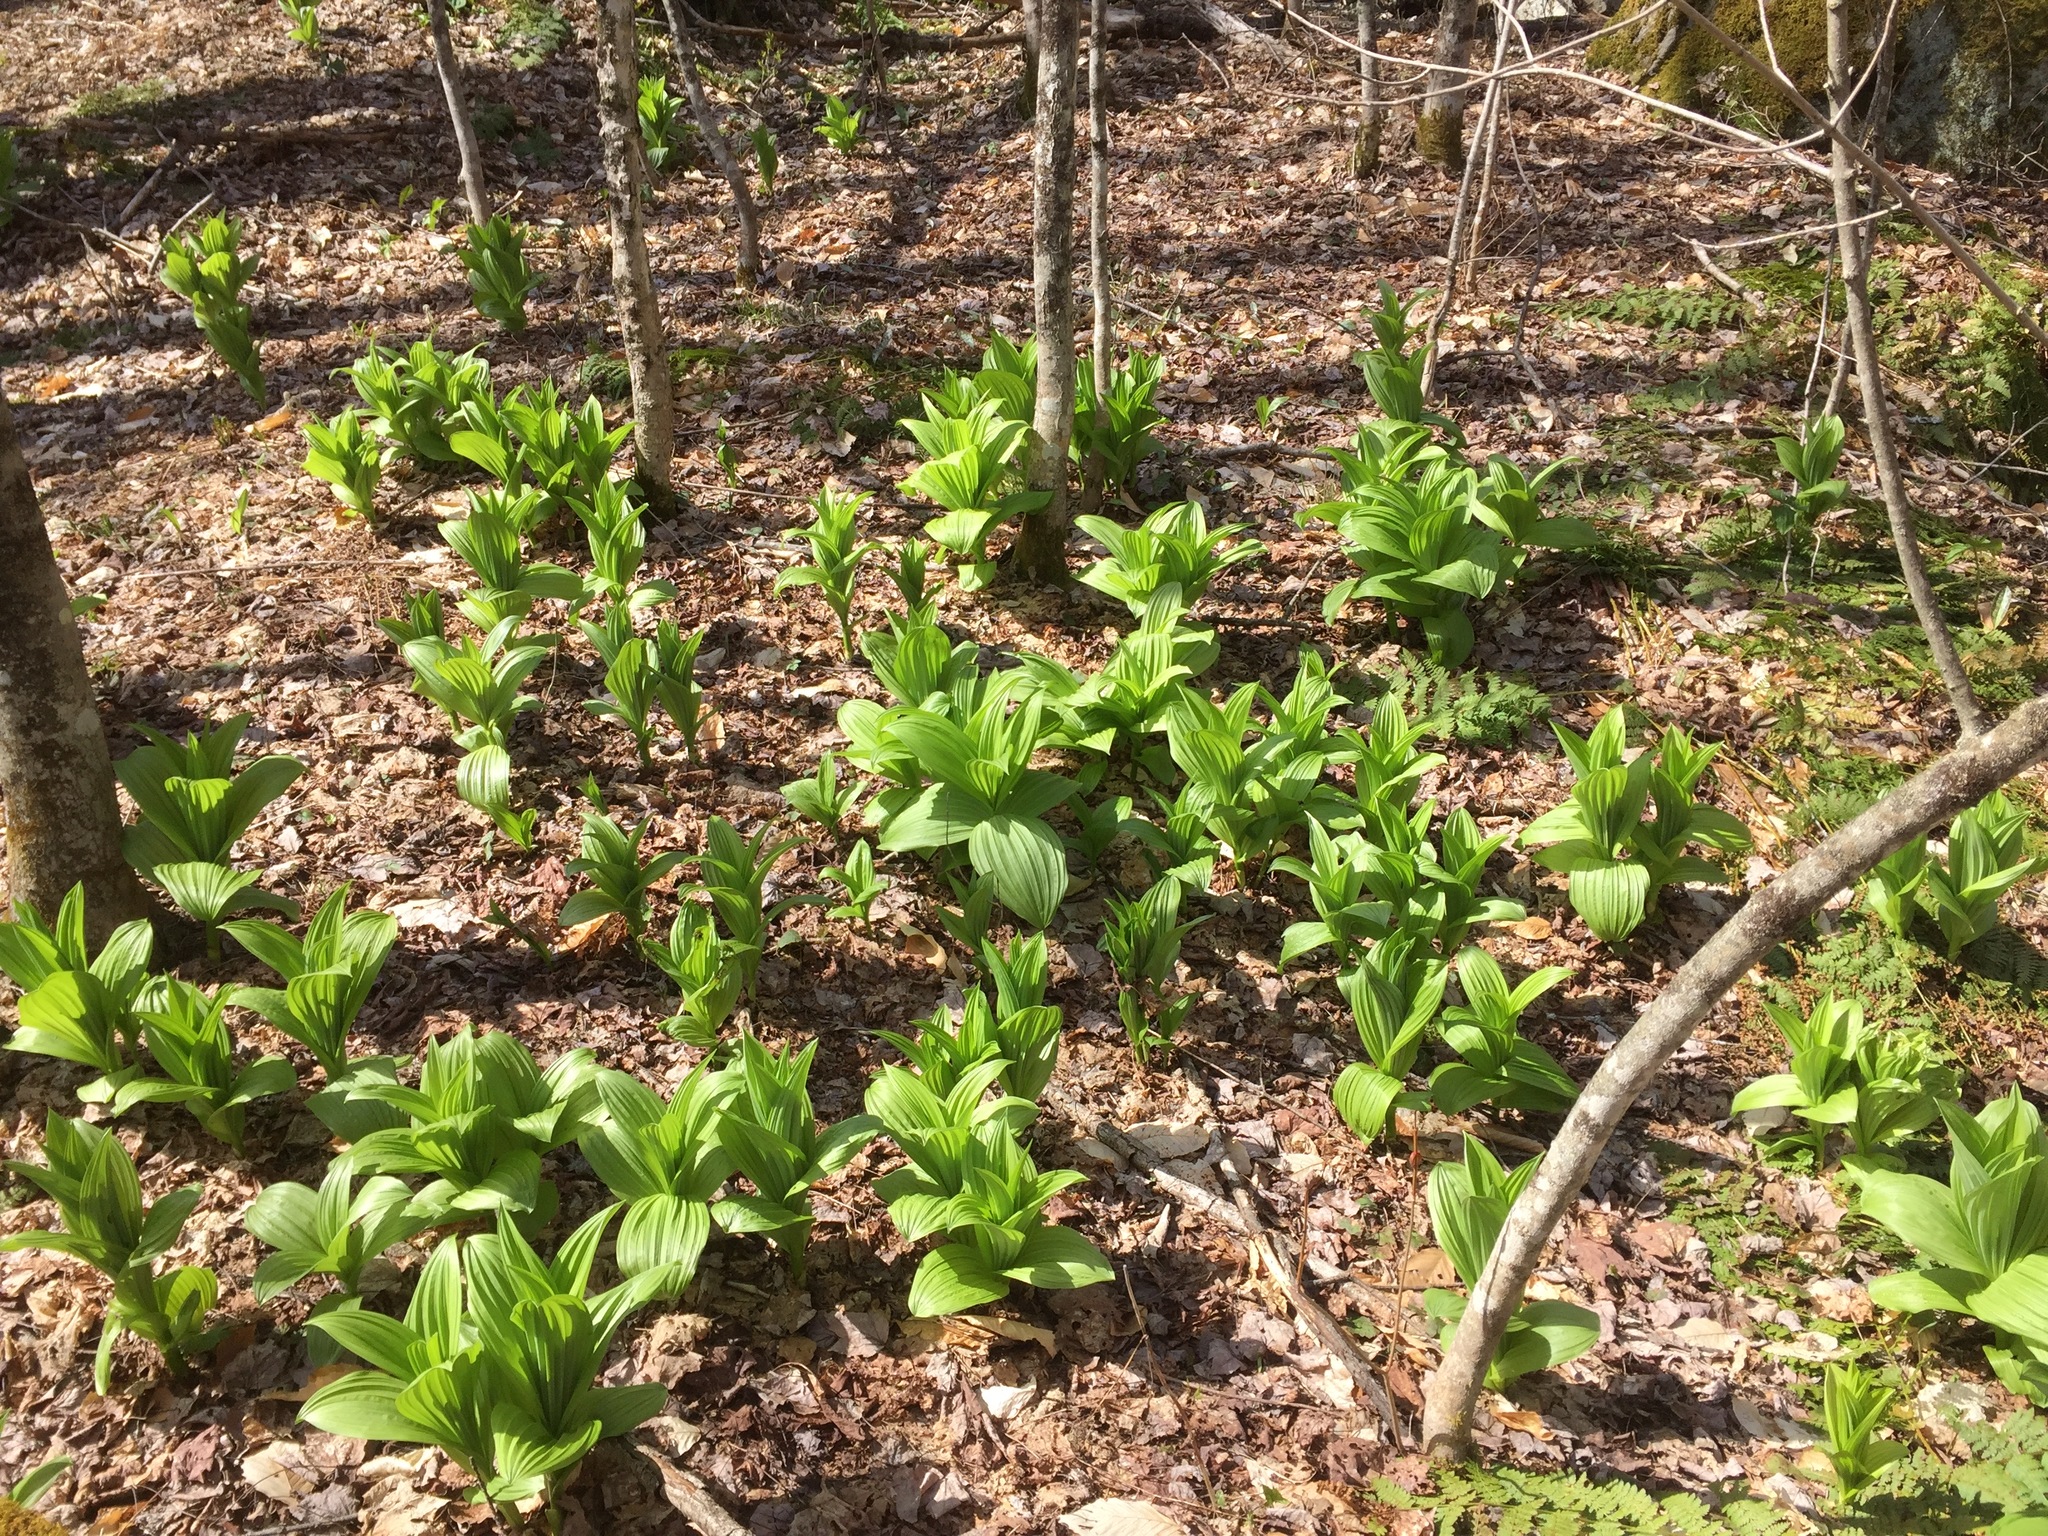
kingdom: Plantae
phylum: Tracheophyta
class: Liliopsida
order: Liliales
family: Melanthiaceae
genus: Veratrum
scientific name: Veratrum viride
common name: American false hellebore
